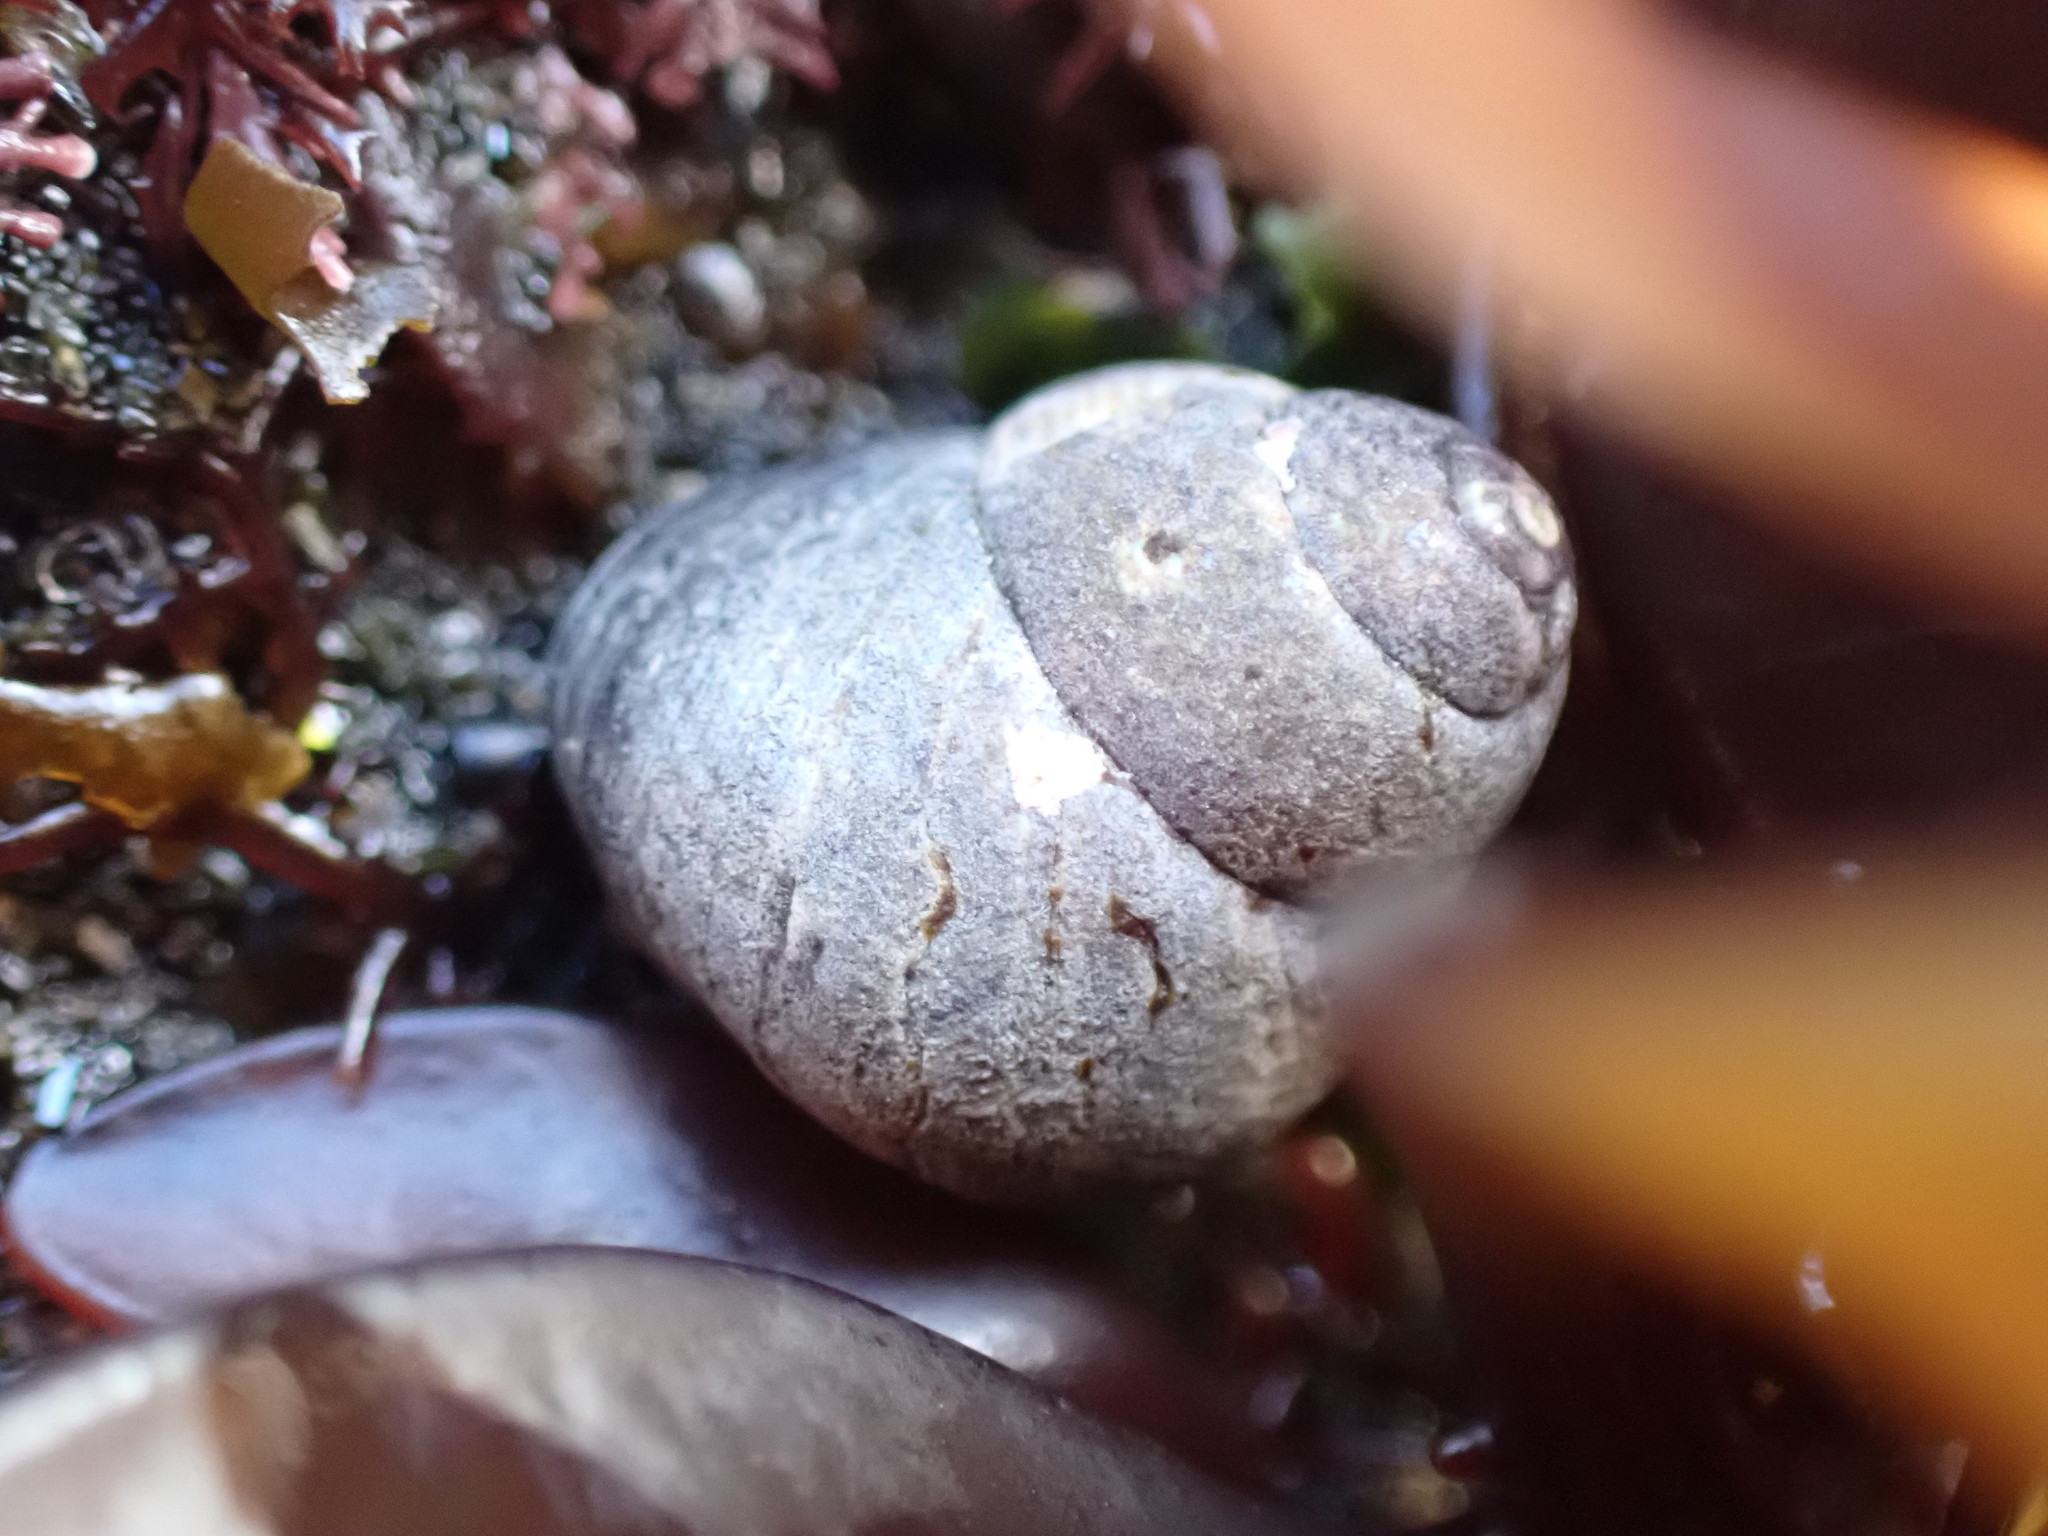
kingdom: Animalia
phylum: Mollusca
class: Gastropoda
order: Trochida
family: Trochidae
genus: Micrelenchus
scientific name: Micrelenchus tessellatus
